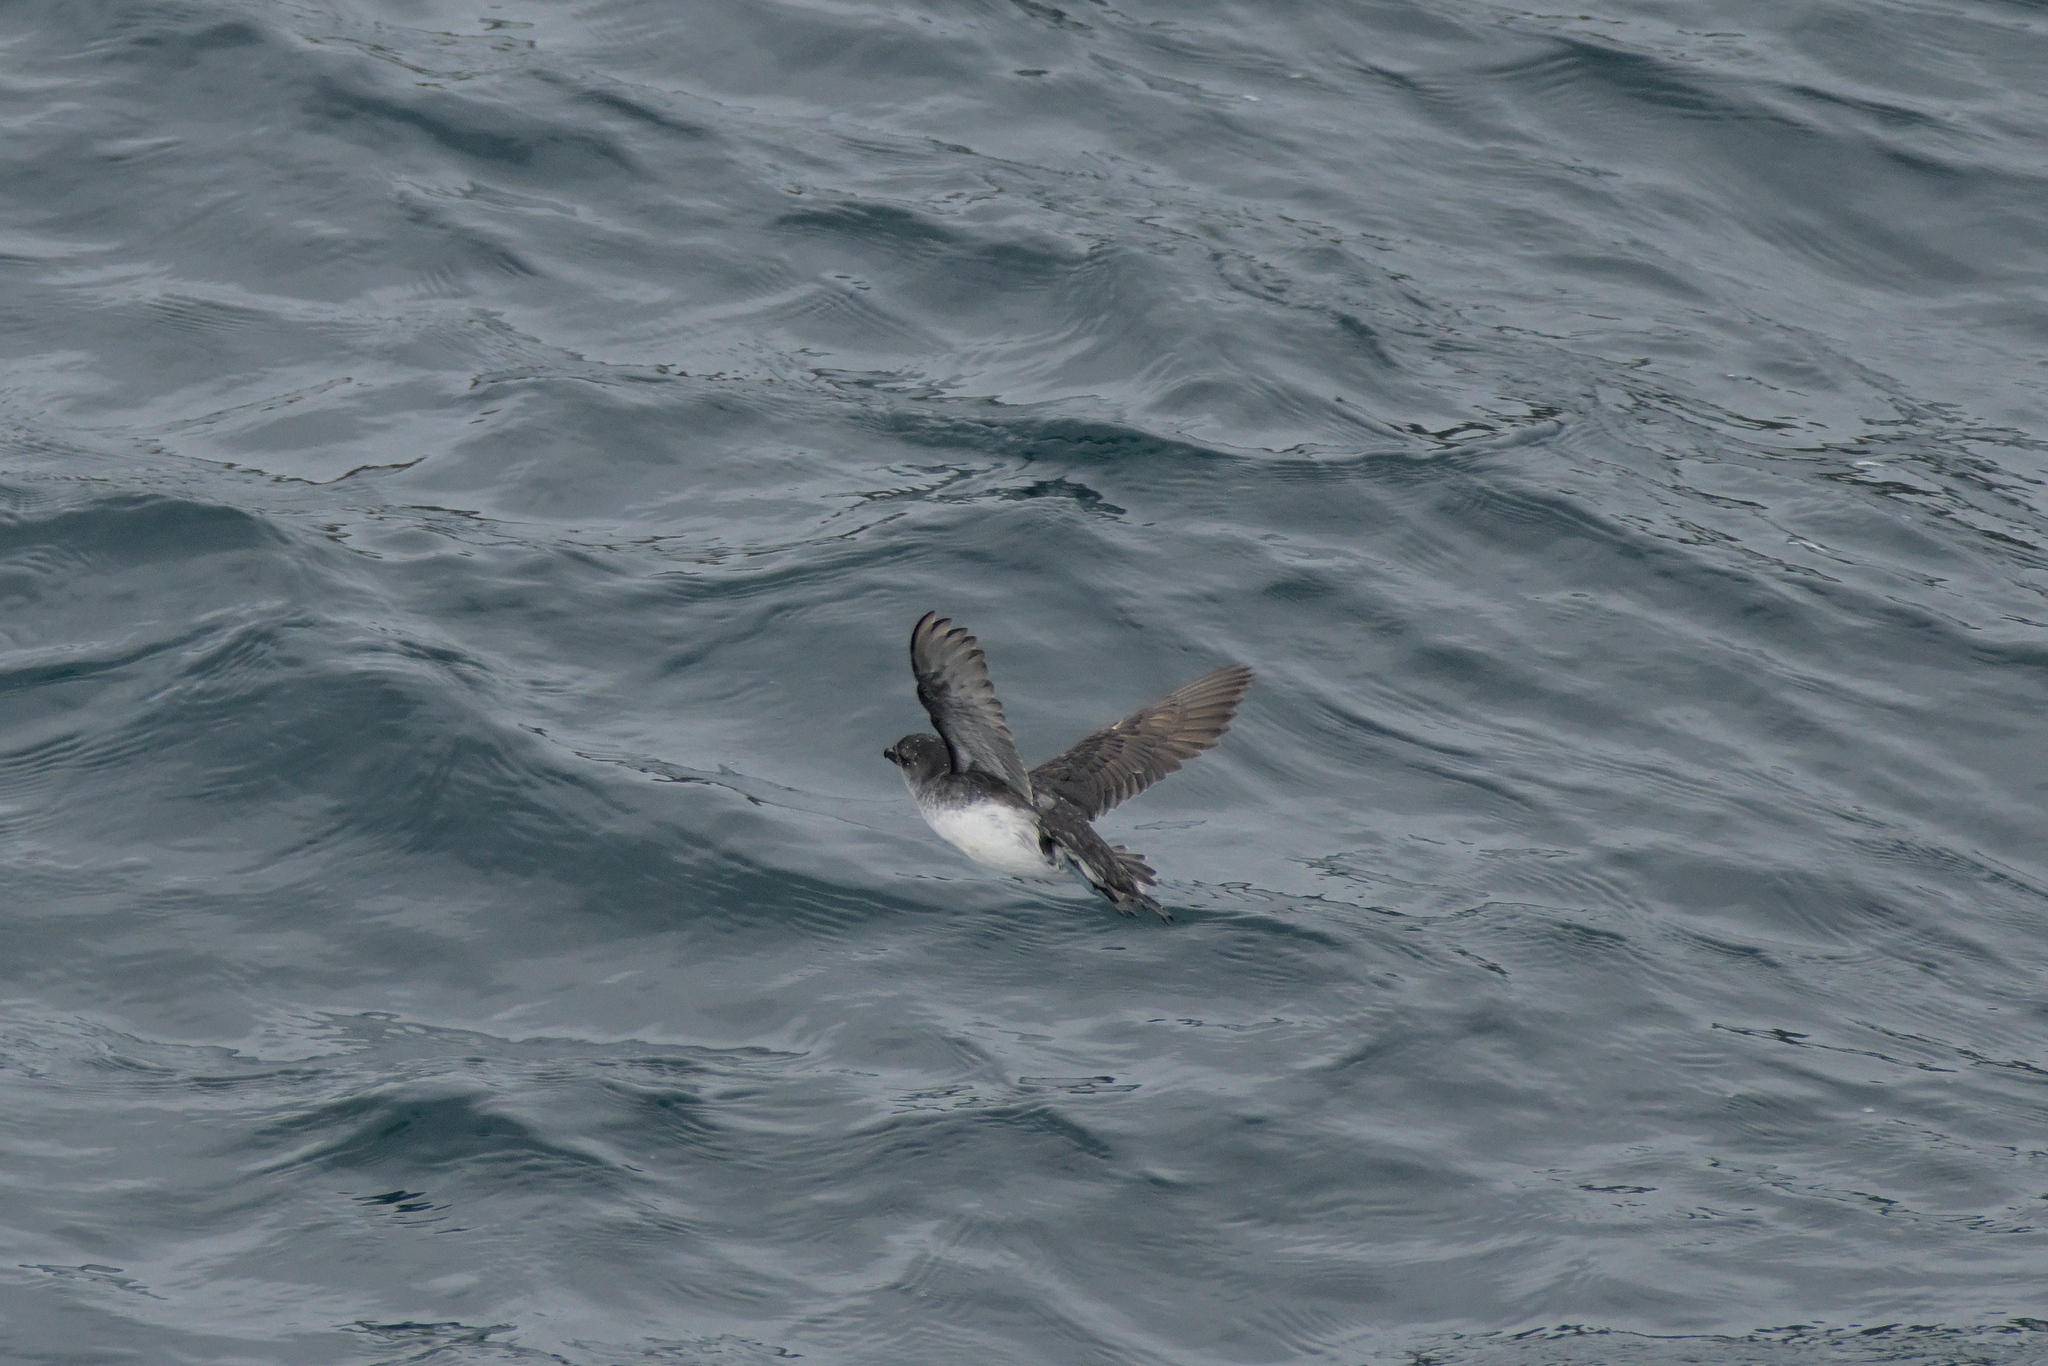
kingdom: Animalia
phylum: Chordata
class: Aves
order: Procellariiformes
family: Pelecanoididae
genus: Pelecanoides
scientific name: Pelecanoides urinatrix
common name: Common diving-petrel
